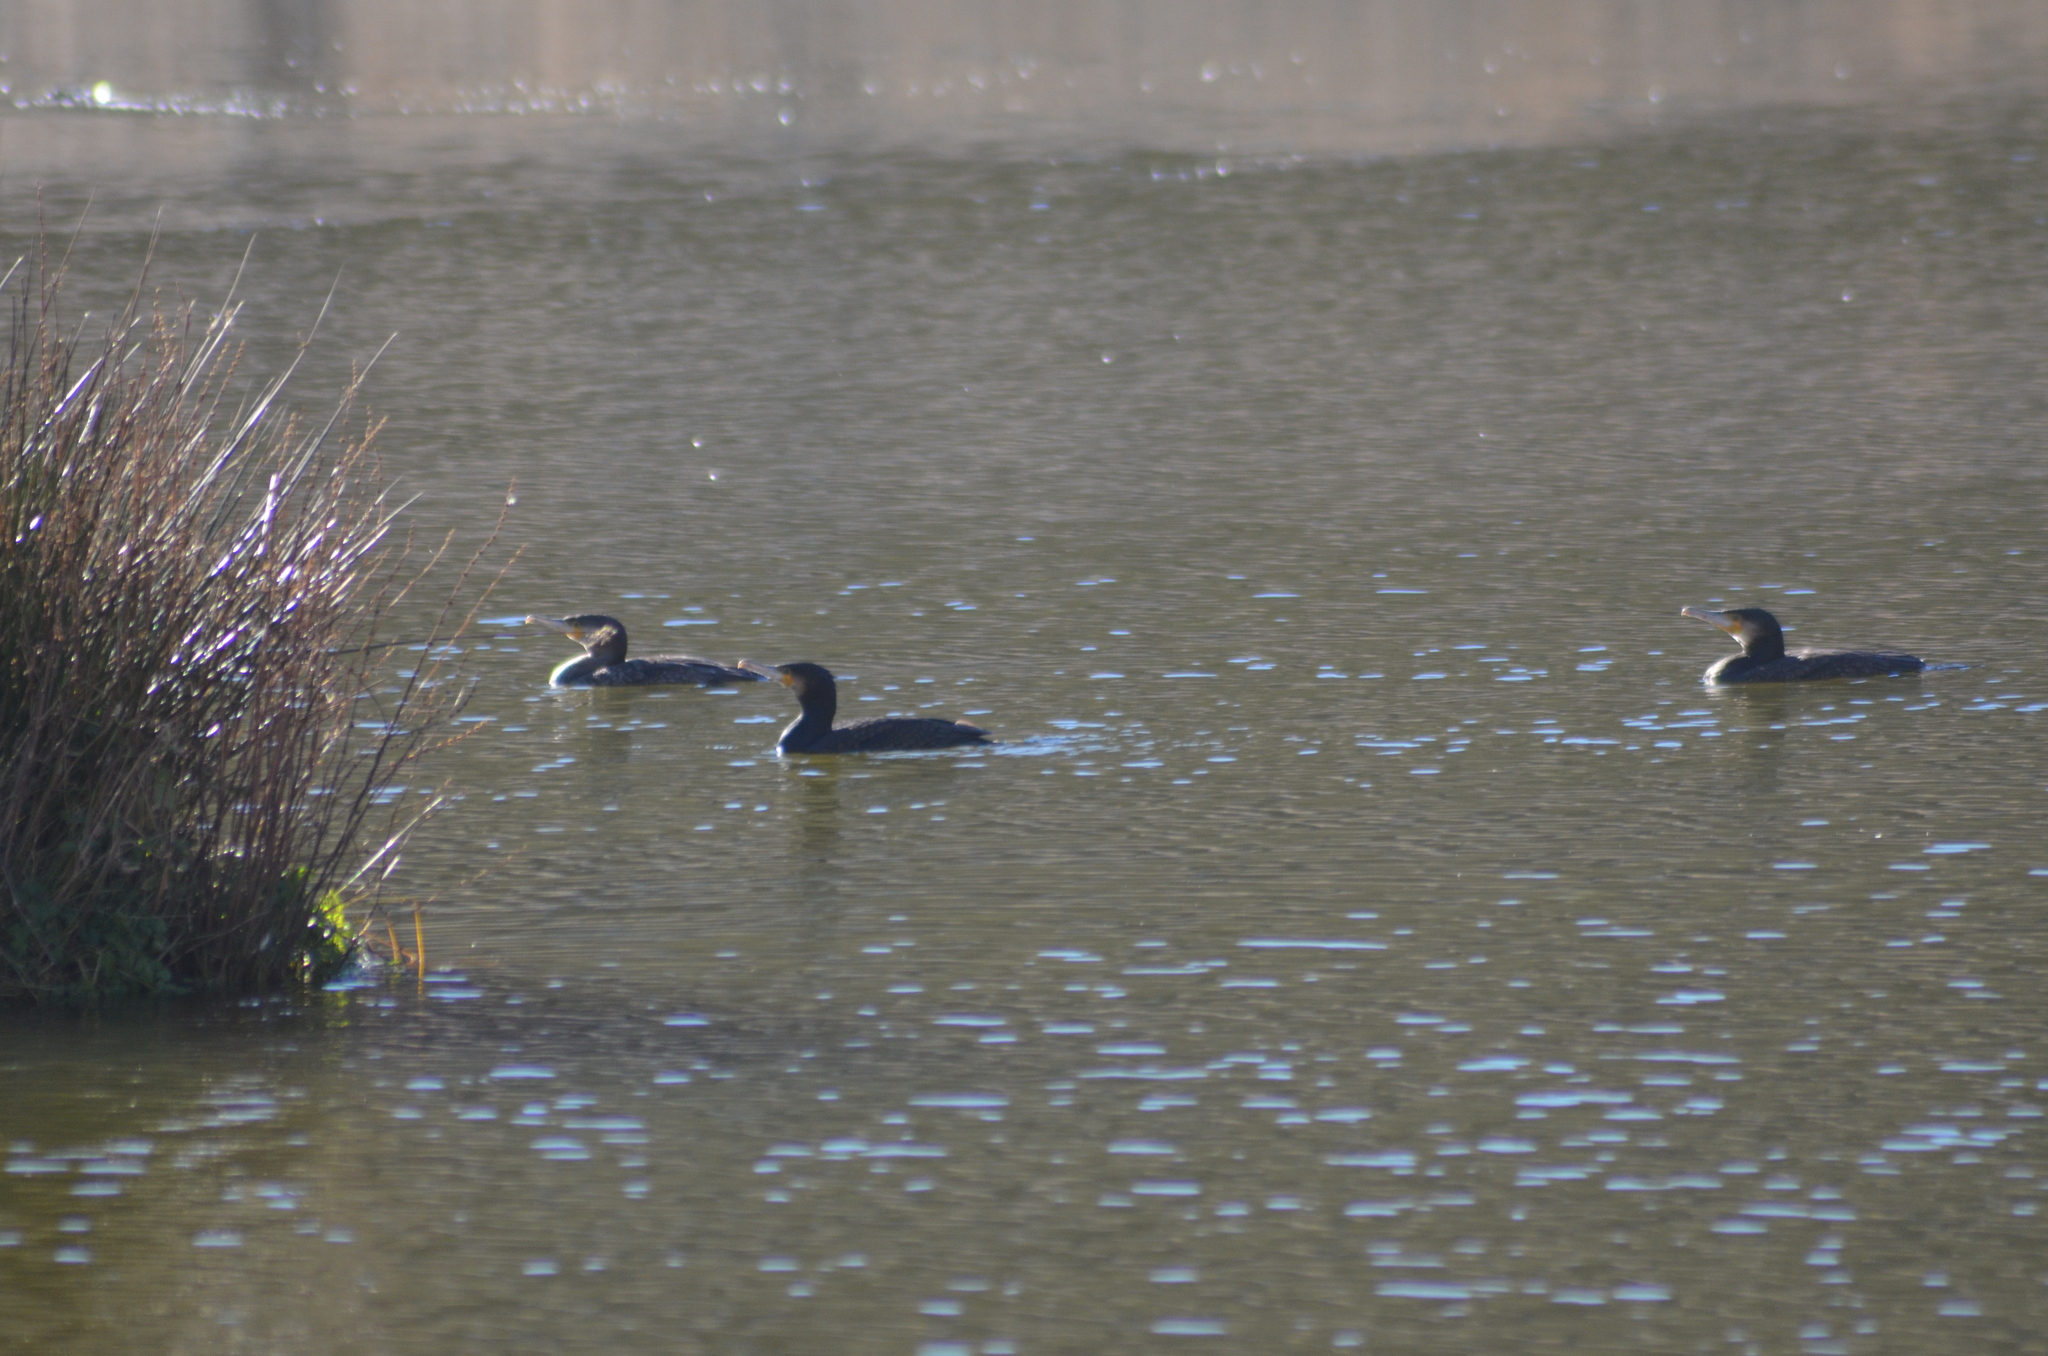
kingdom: Animalia
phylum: Chordata
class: Aves
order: Suliformes
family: Phalacrocoracidae
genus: Phalacrocorax
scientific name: Phalacrocorax carbo
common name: Great cormorant
